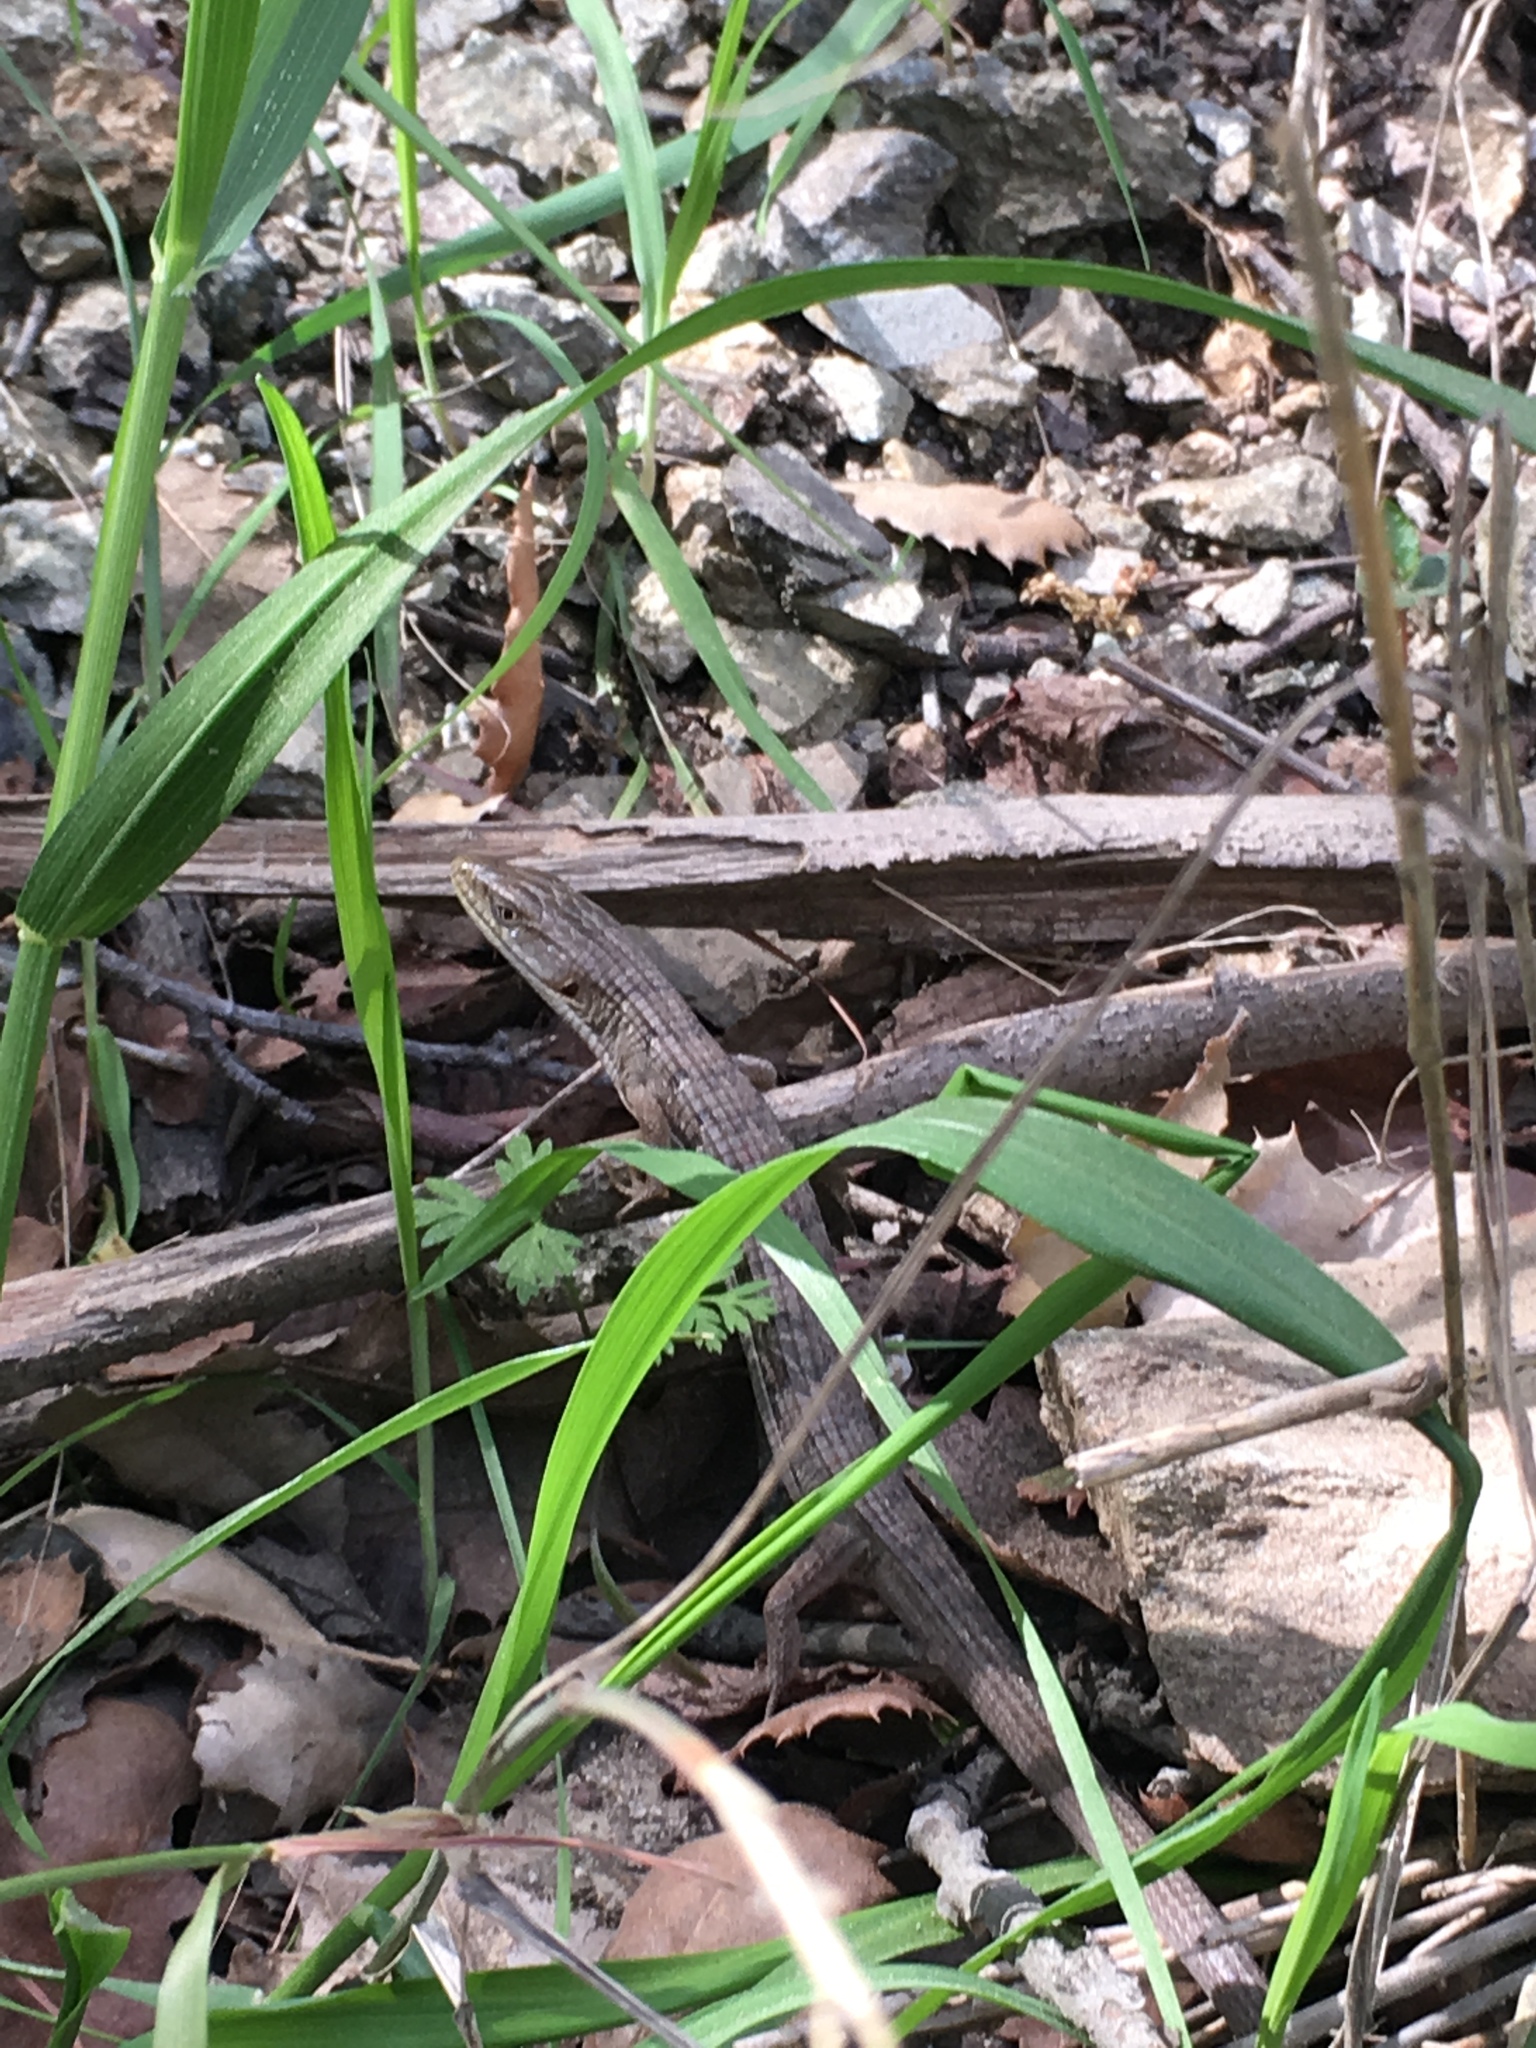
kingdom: Animalia
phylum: Chordata
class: Squamata
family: Anguidae
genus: Elgaria
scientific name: Elgaria multicarinata
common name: Southern alligator lizard
